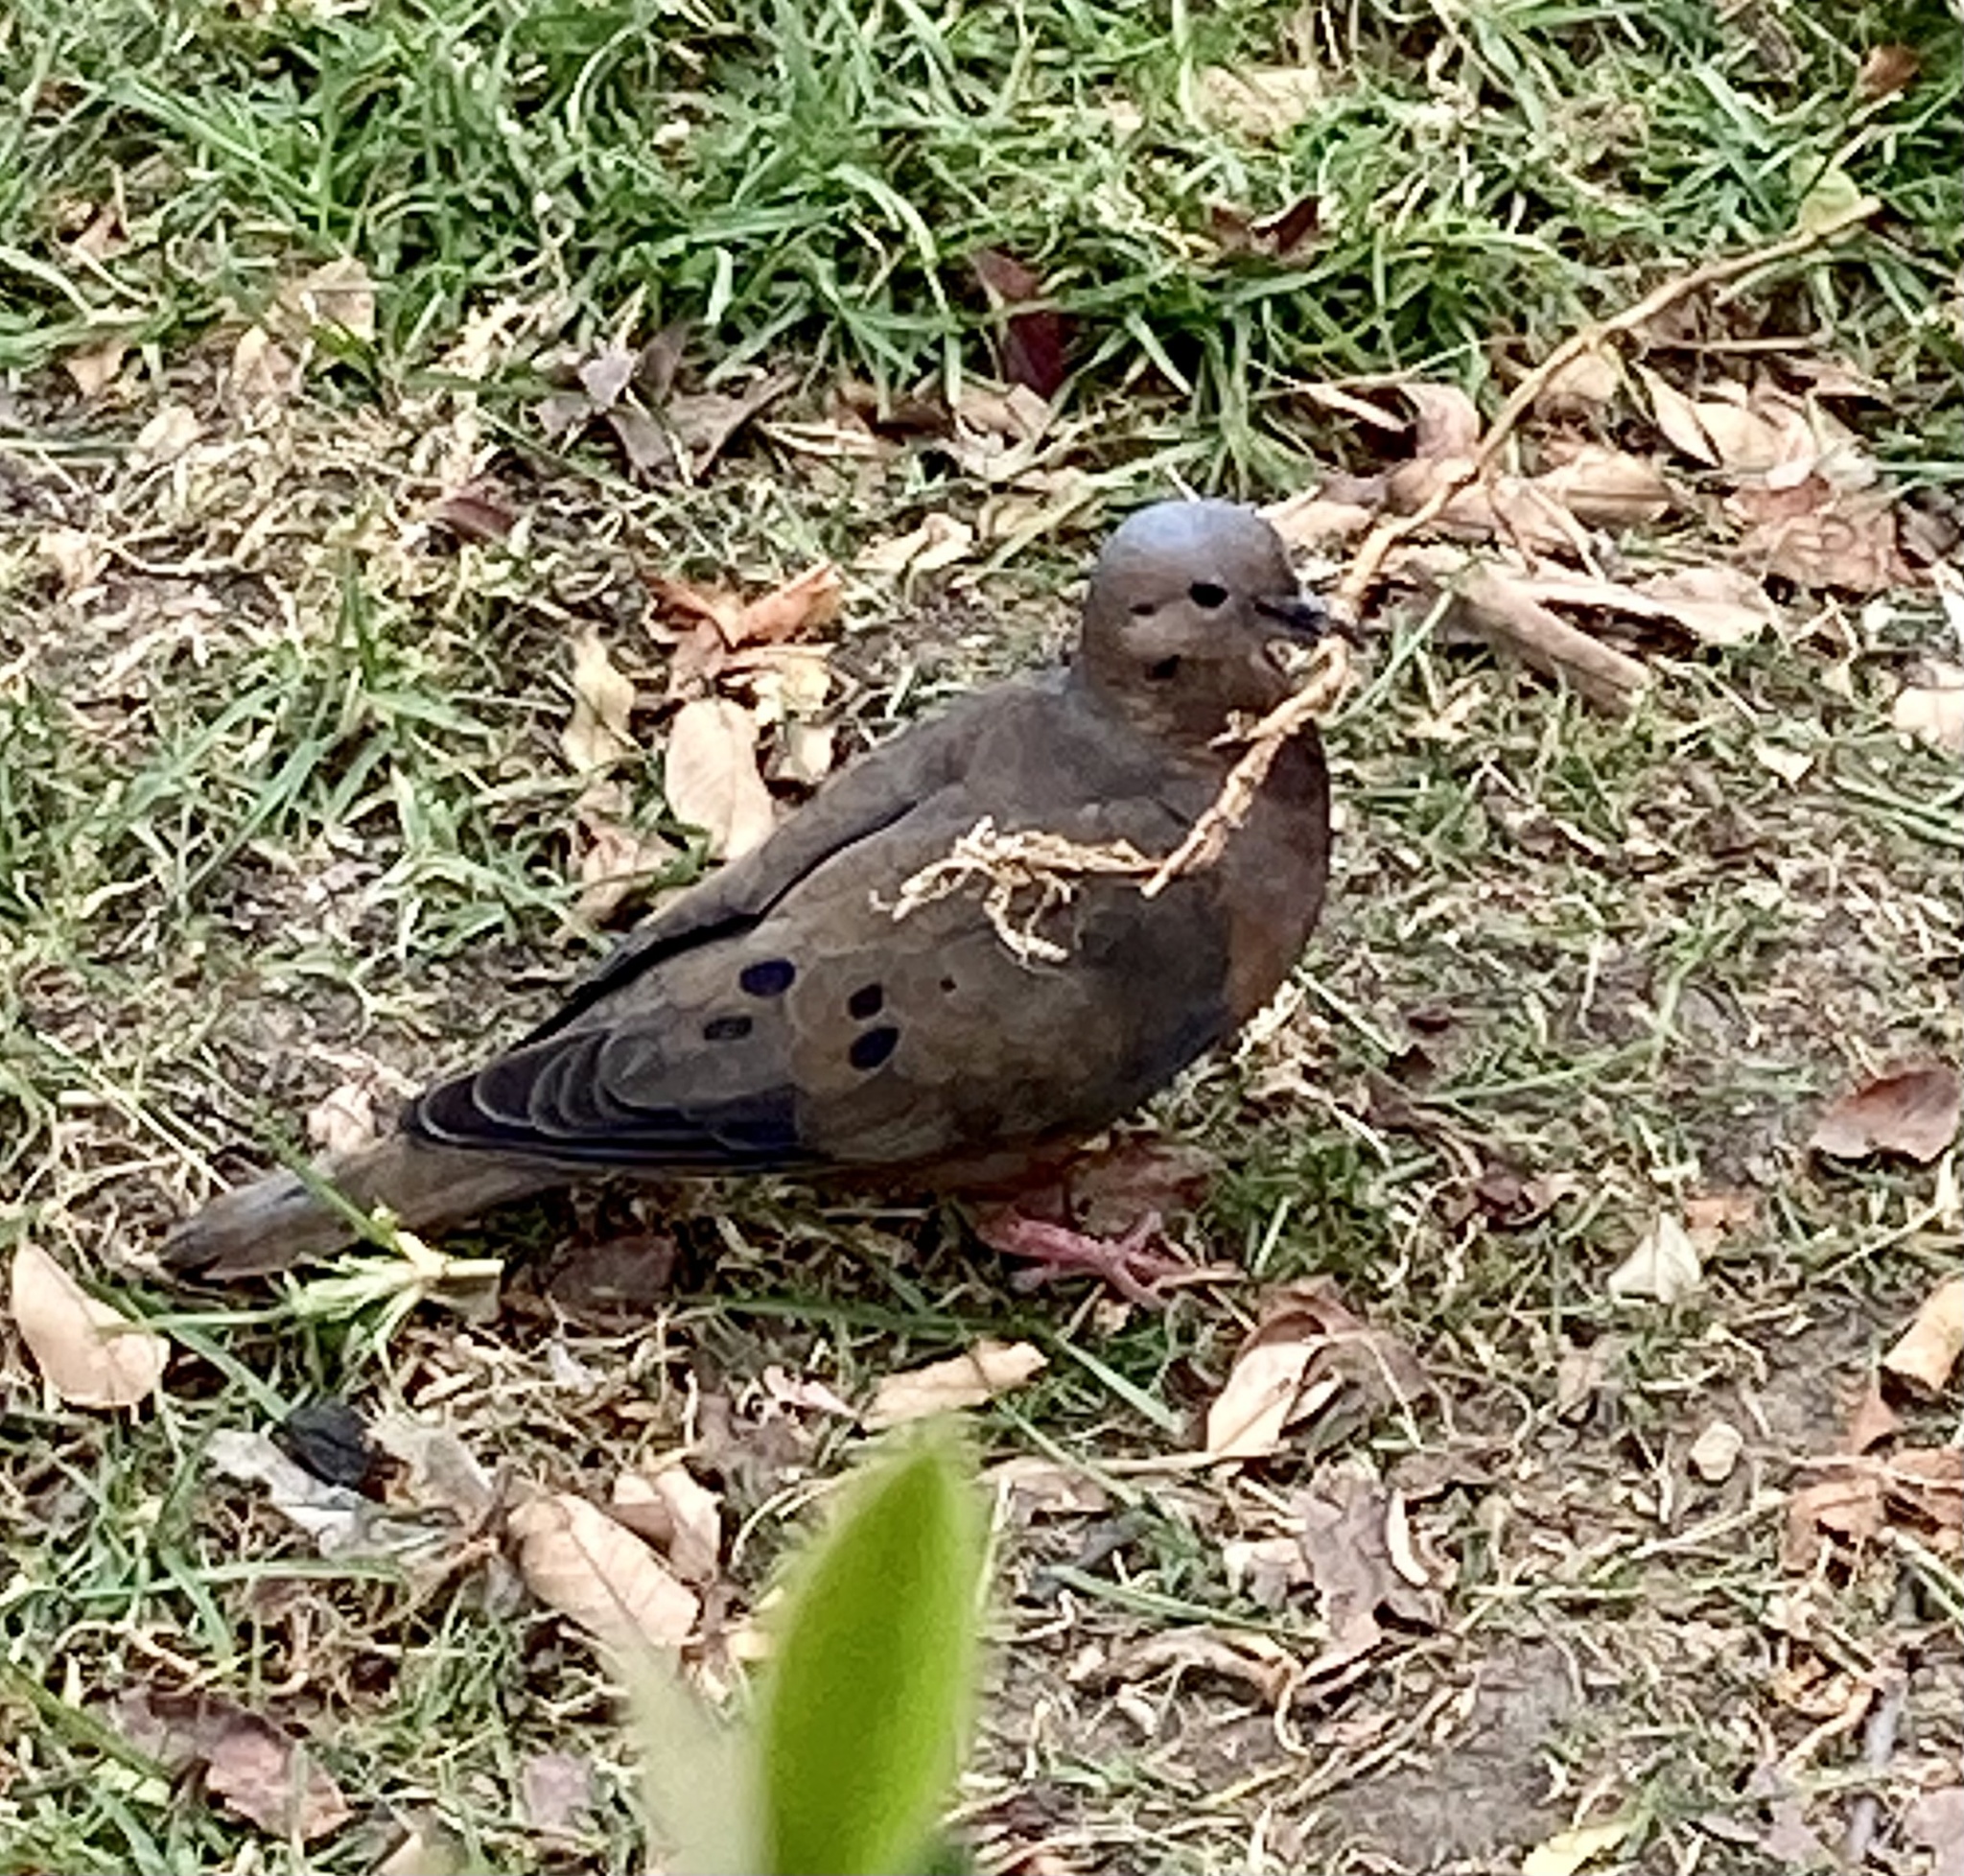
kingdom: Animalia
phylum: Chordata
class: Aves
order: Columbiformes
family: Columbidae
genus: Zenaida
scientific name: Zenaida auriculata
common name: Eared dove
